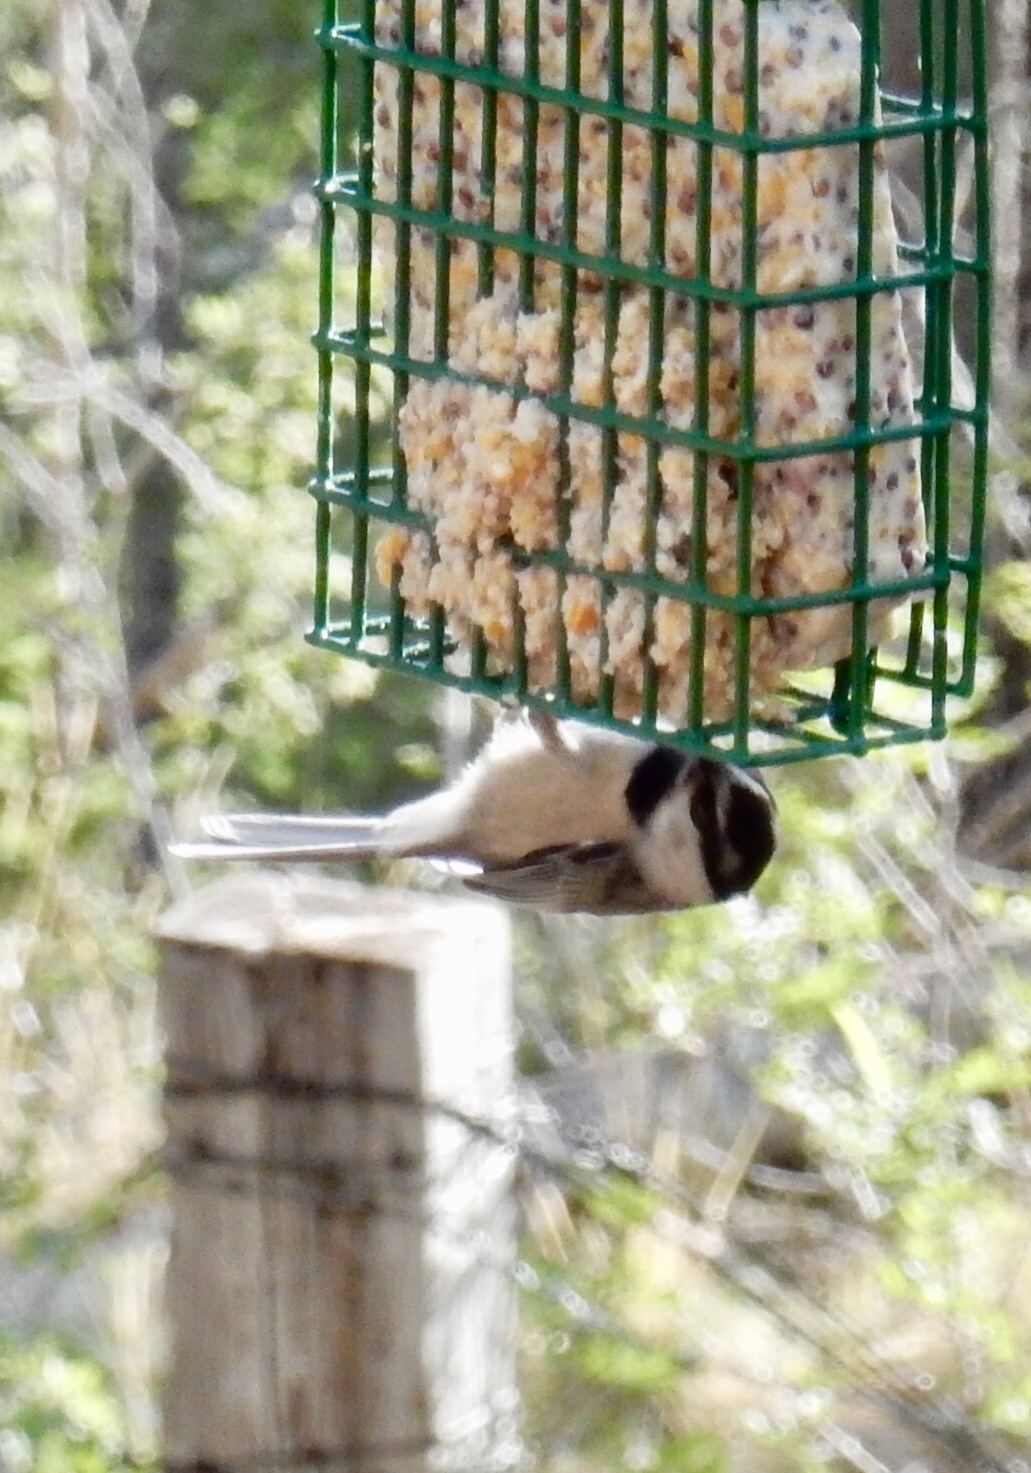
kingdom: Animalia
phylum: Chordata
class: Aves
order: Passeriformes
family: Paridae
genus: Poecile
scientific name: Poecile gambeli
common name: Mountain chickadee
